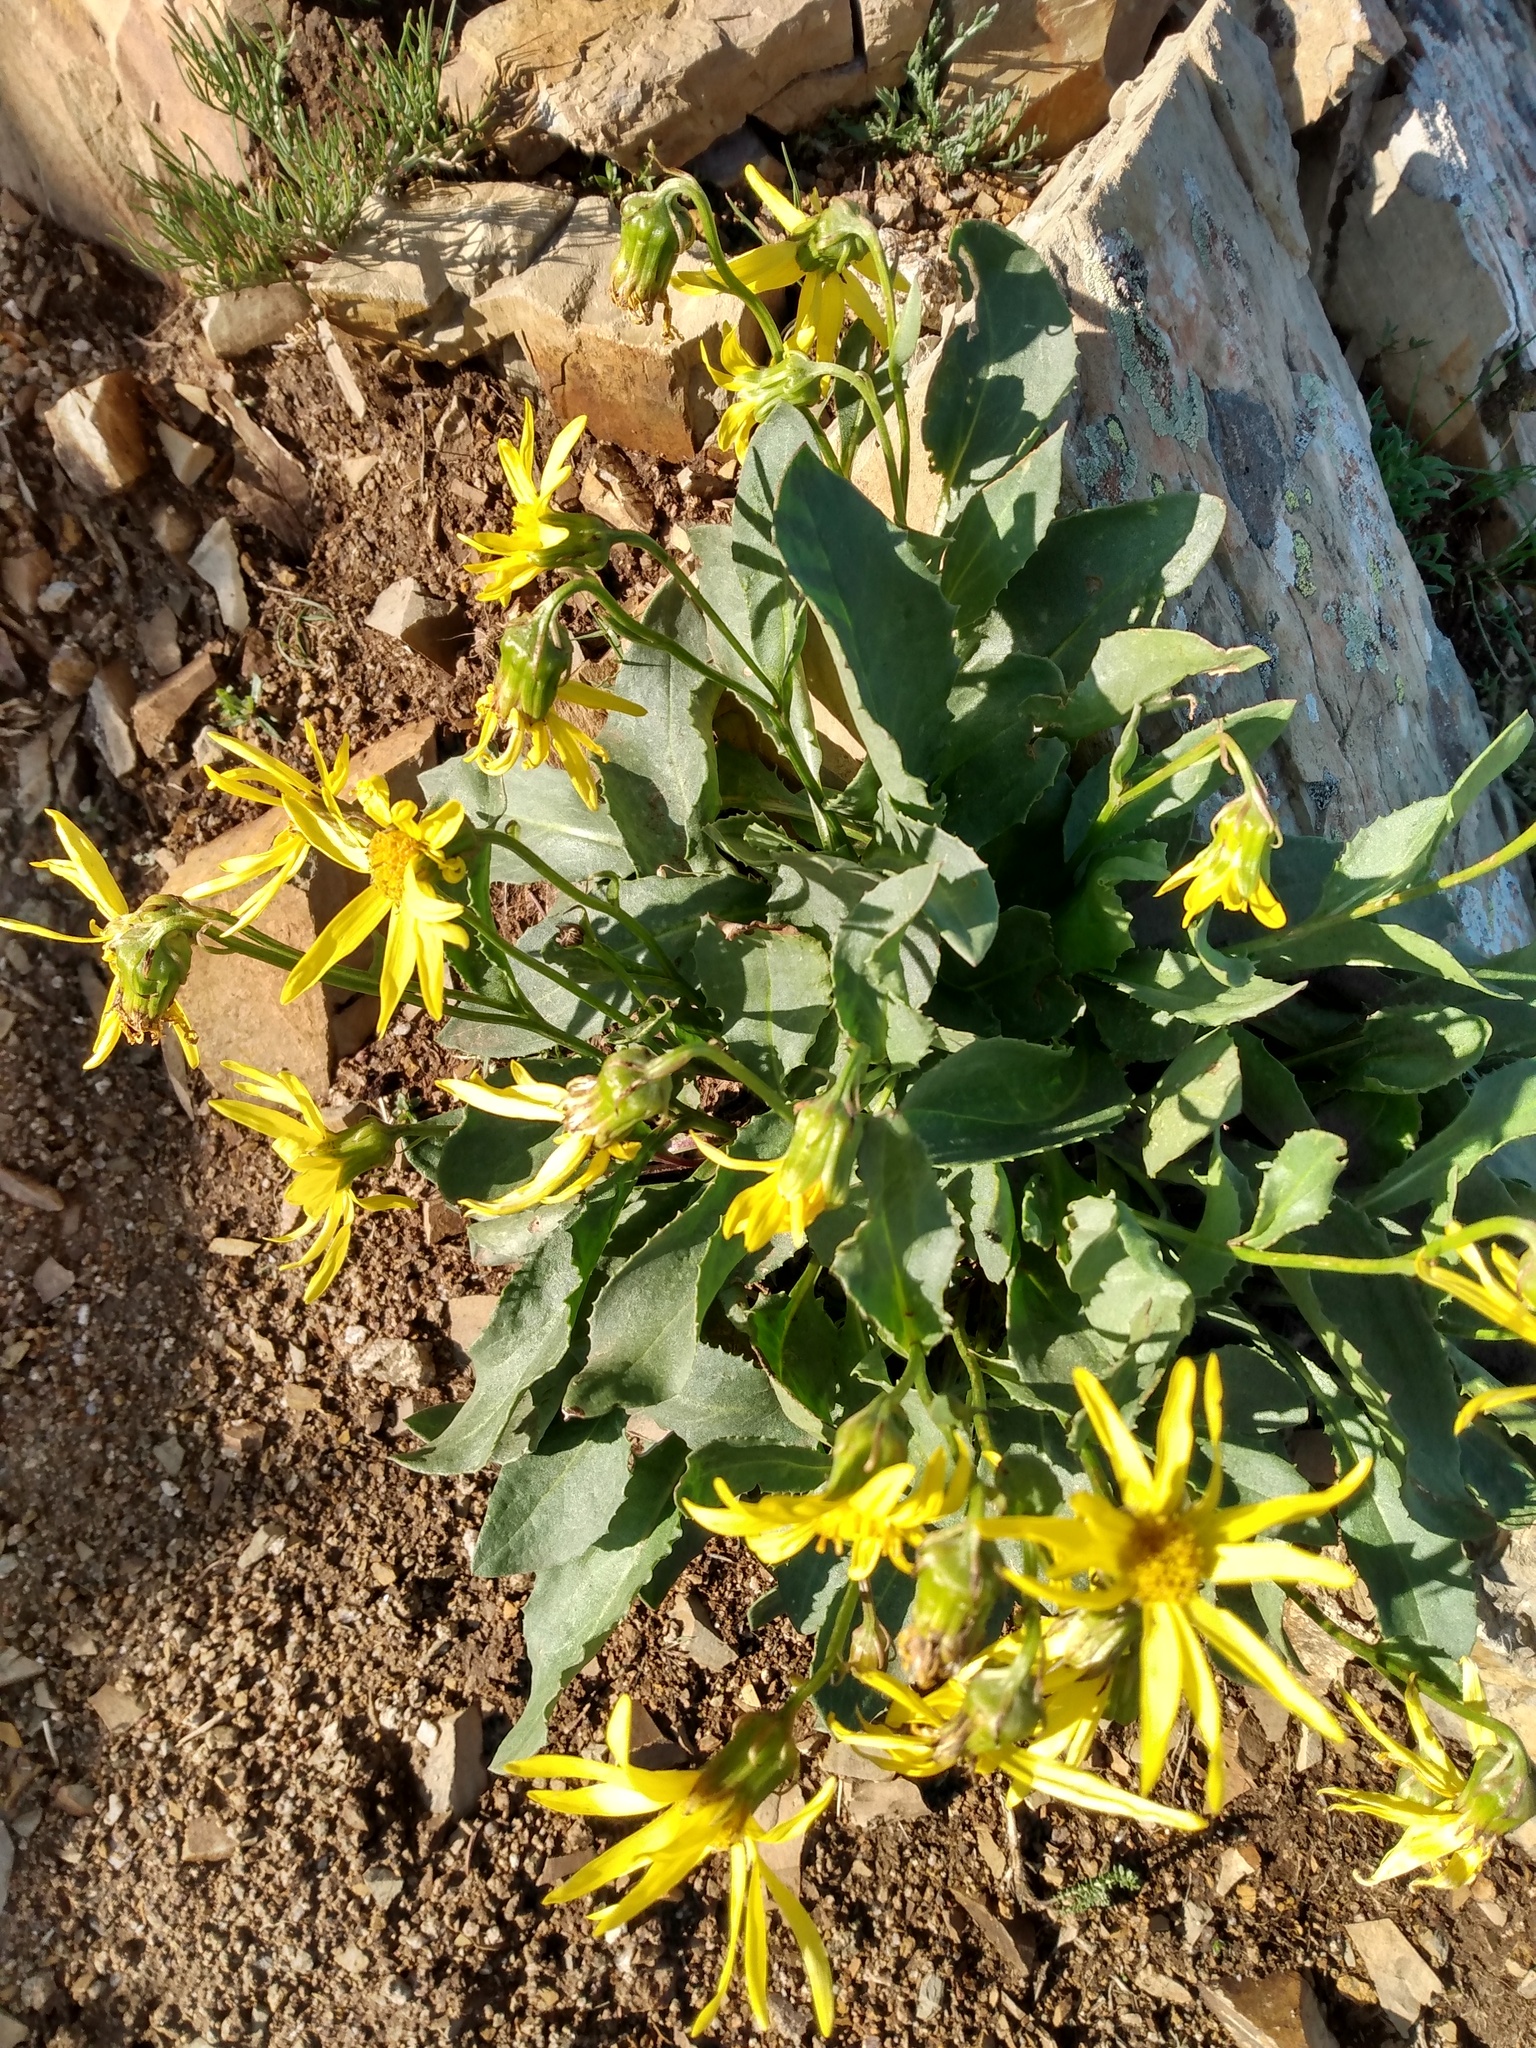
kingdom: Plantae
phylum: Tracheophyta
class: Magnoliopsida
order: Asterales
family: Asteraceae
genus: Senecio
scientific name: Senecio crassulus
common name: Mountain-meadow butterweed
